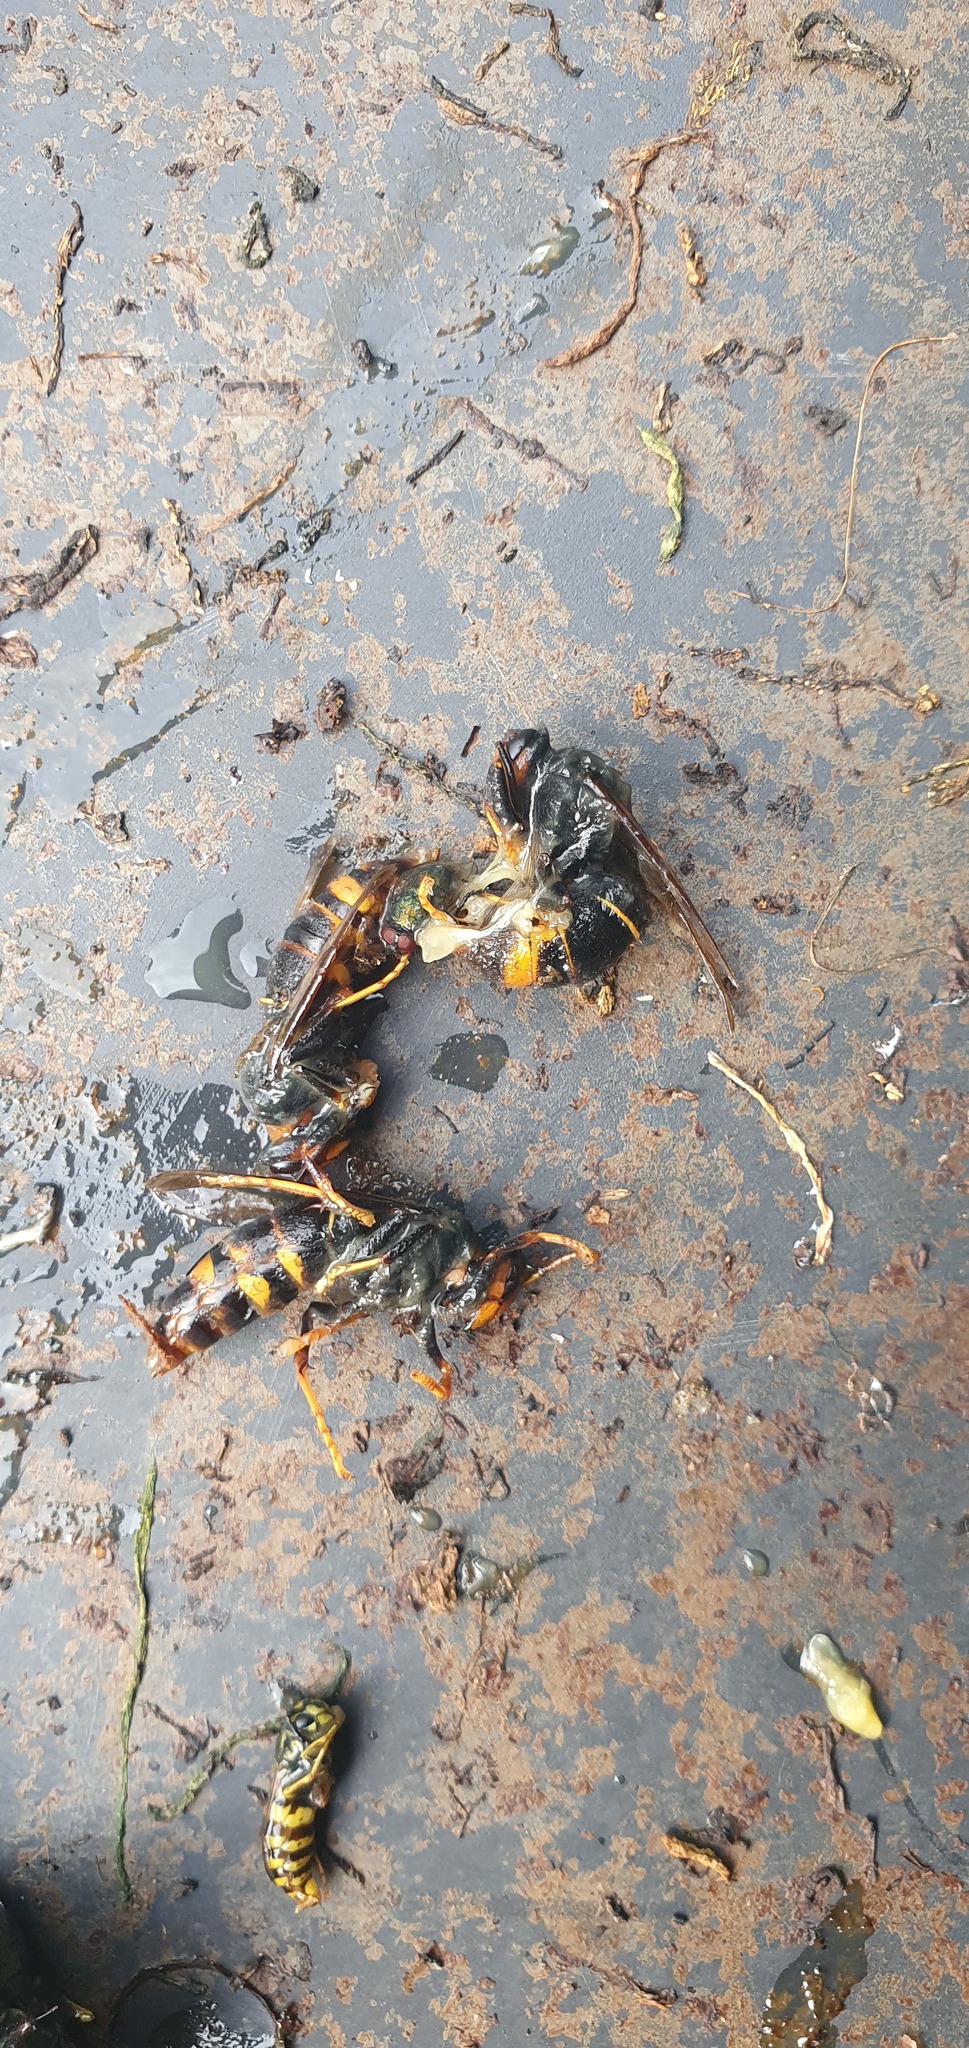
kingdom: Animalia
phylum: Arthropoda
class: Insecta
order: Hymenoptera
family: Vespidae
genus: Vespa
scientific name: Vespa velutina
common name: Asian hornet
